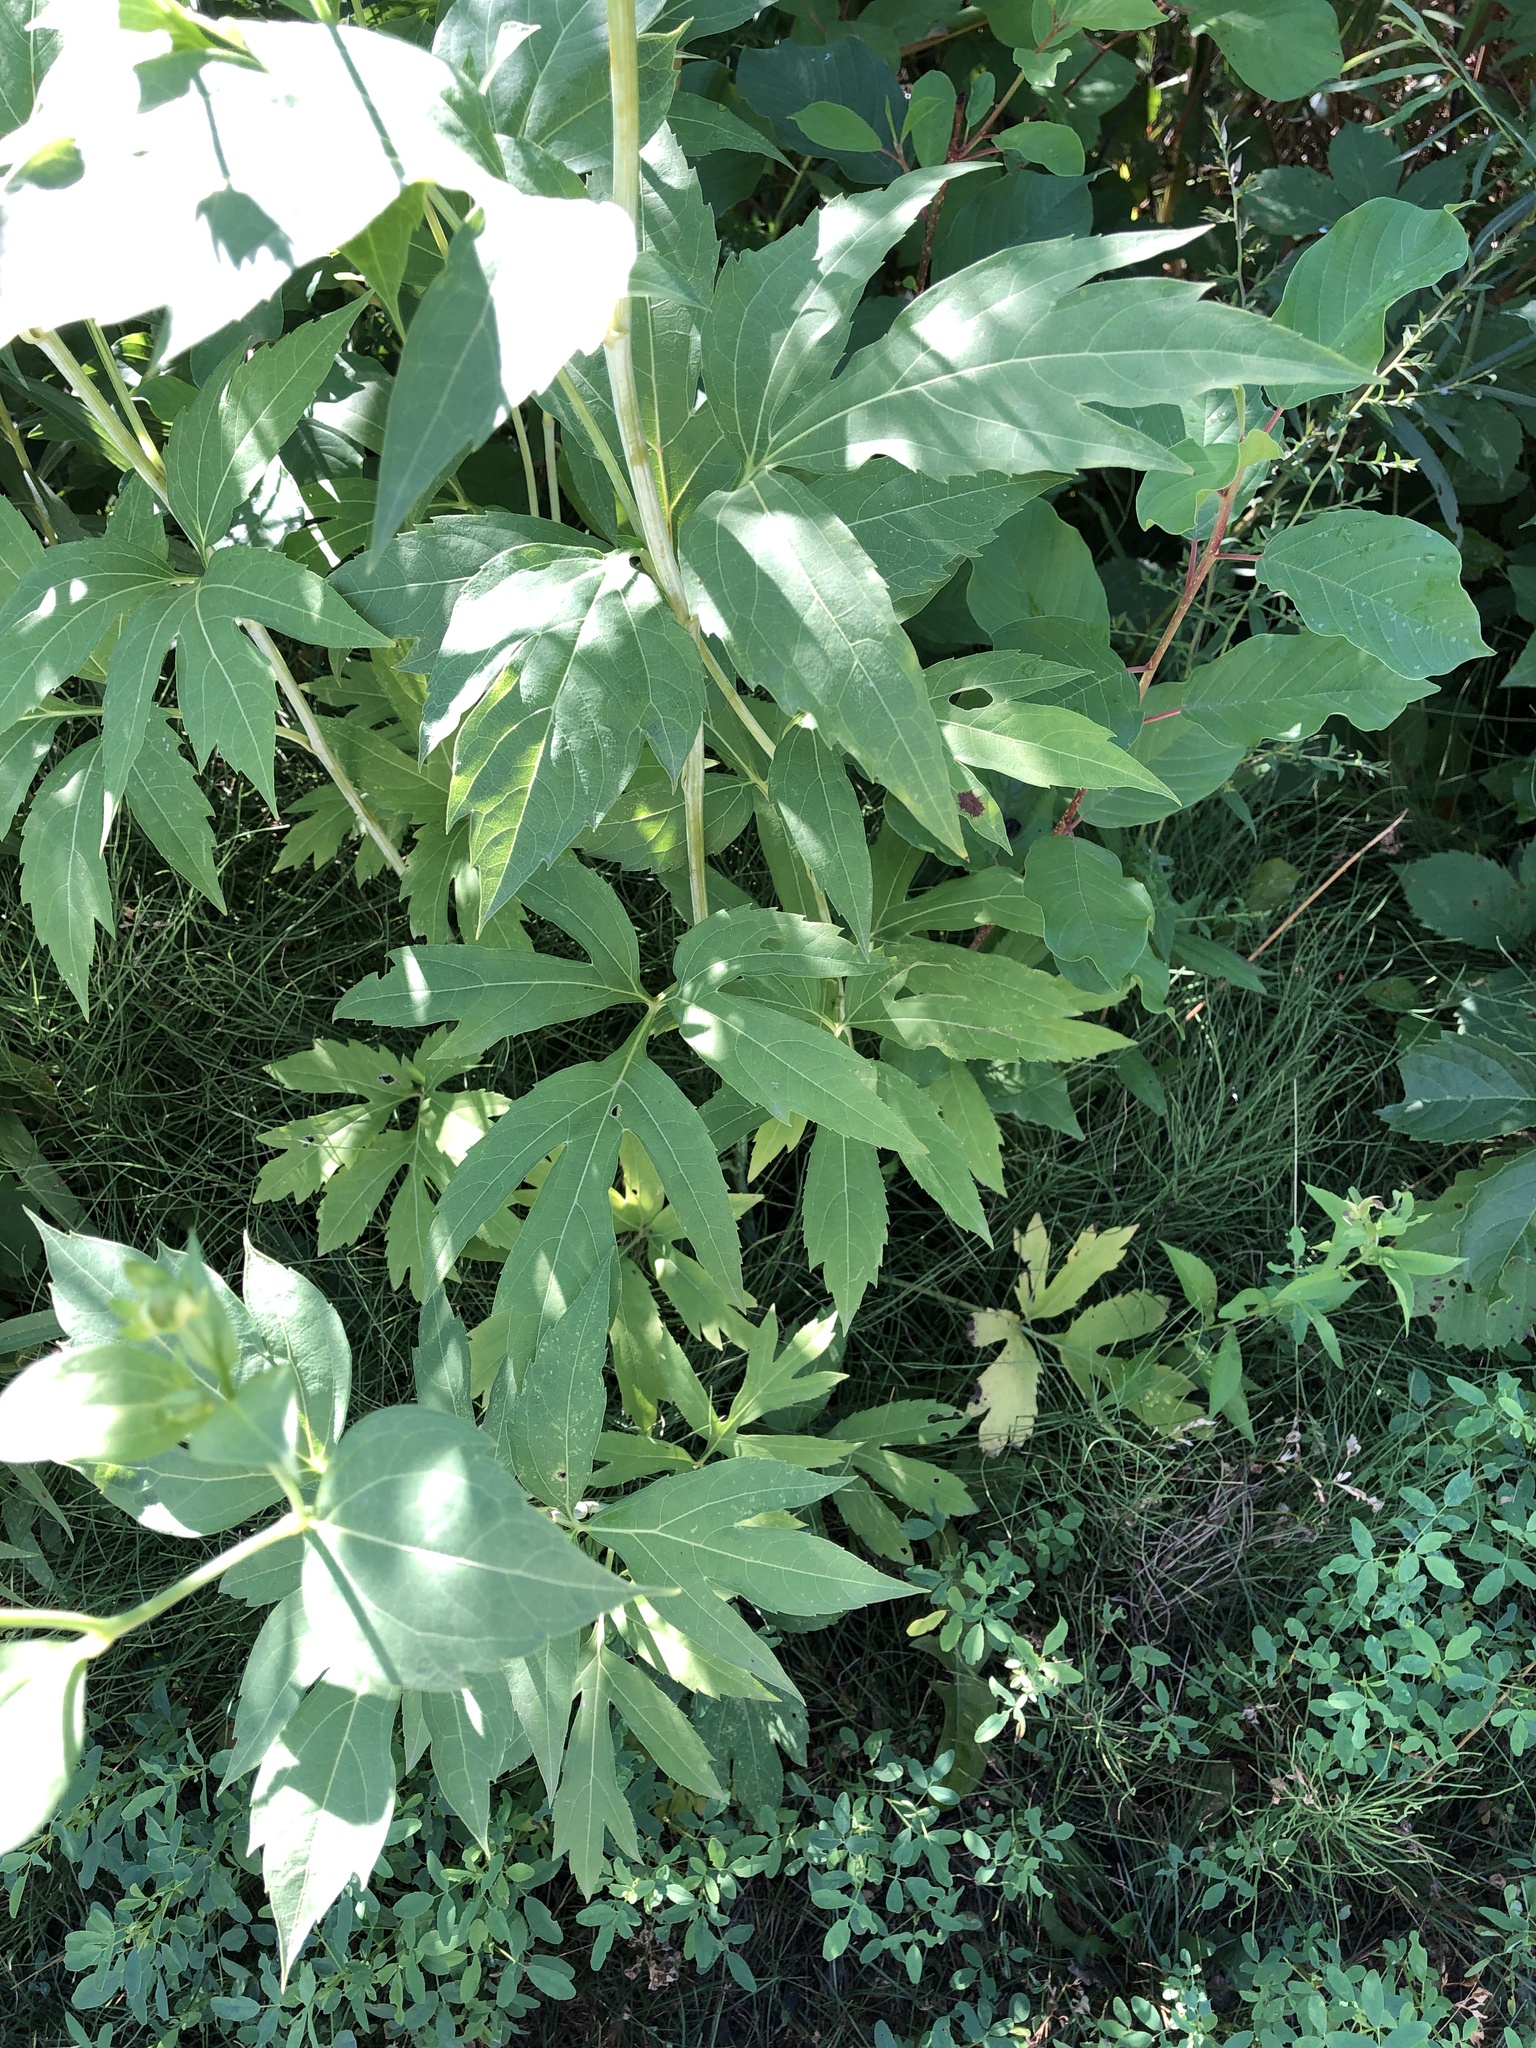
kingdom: Plantae
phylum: Tracheophyta
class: Magnoliopsida
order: Asterales
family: Asteraceae
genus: Rudbeckia
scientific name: Rudbeckia laciniata
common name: Coneflower
